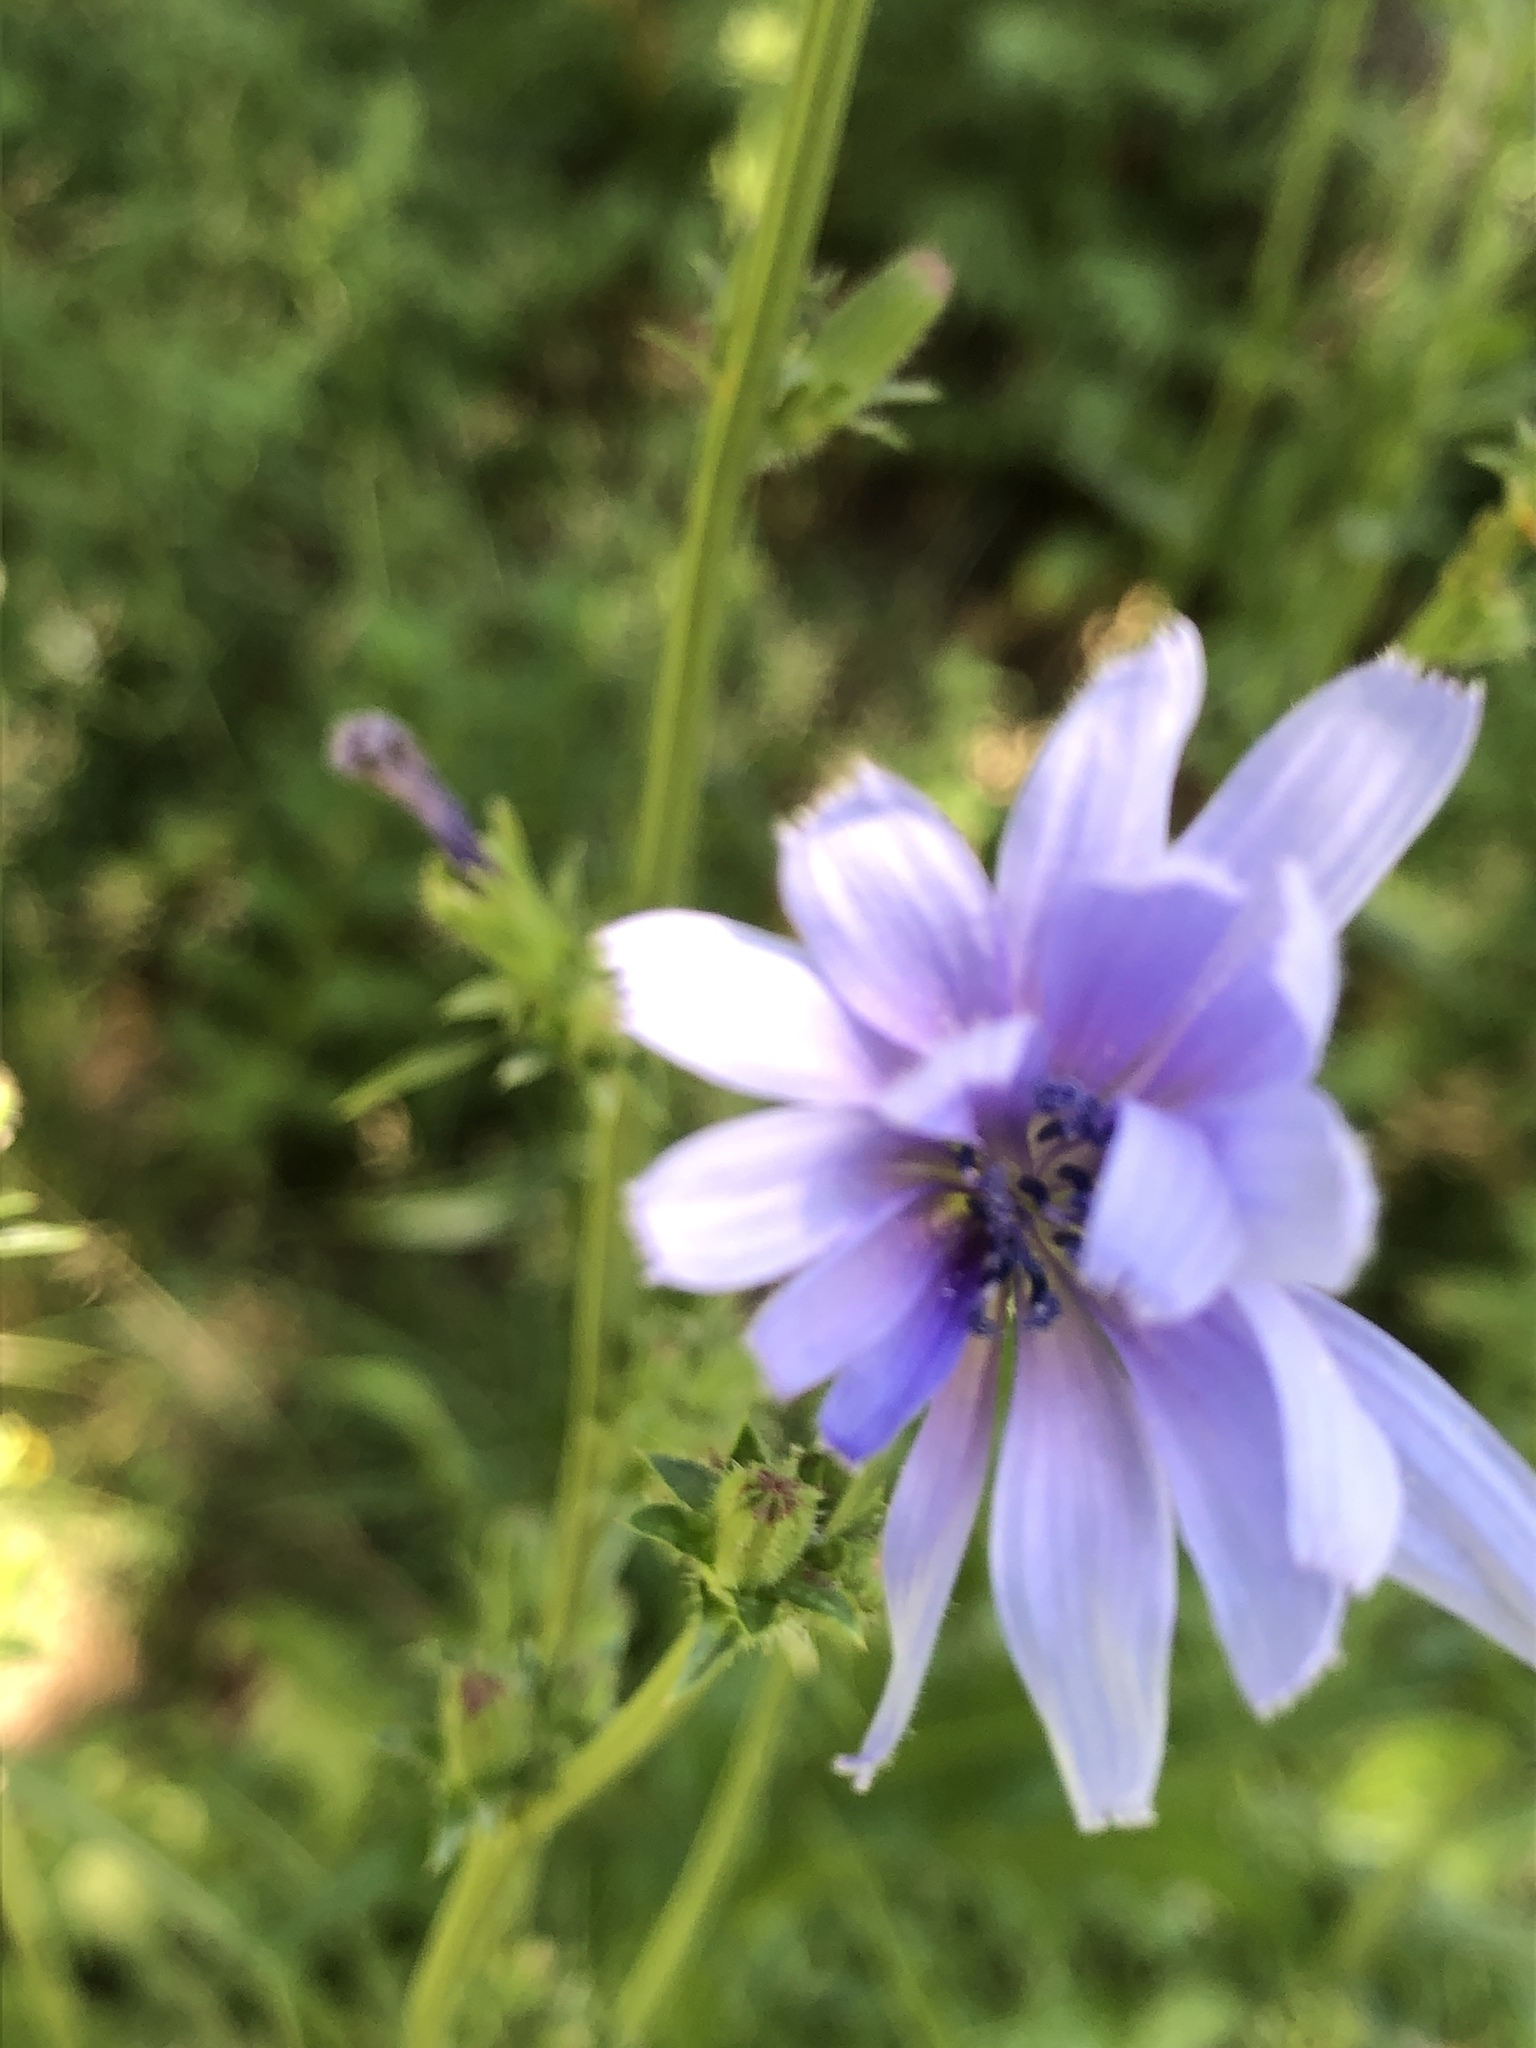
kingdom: Plantae
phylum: Tracheophyta
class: Magnoliopsida
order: Asterales
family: Asteraceae
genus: Cichorium
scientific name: Cichorium intybus
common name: Chicory
